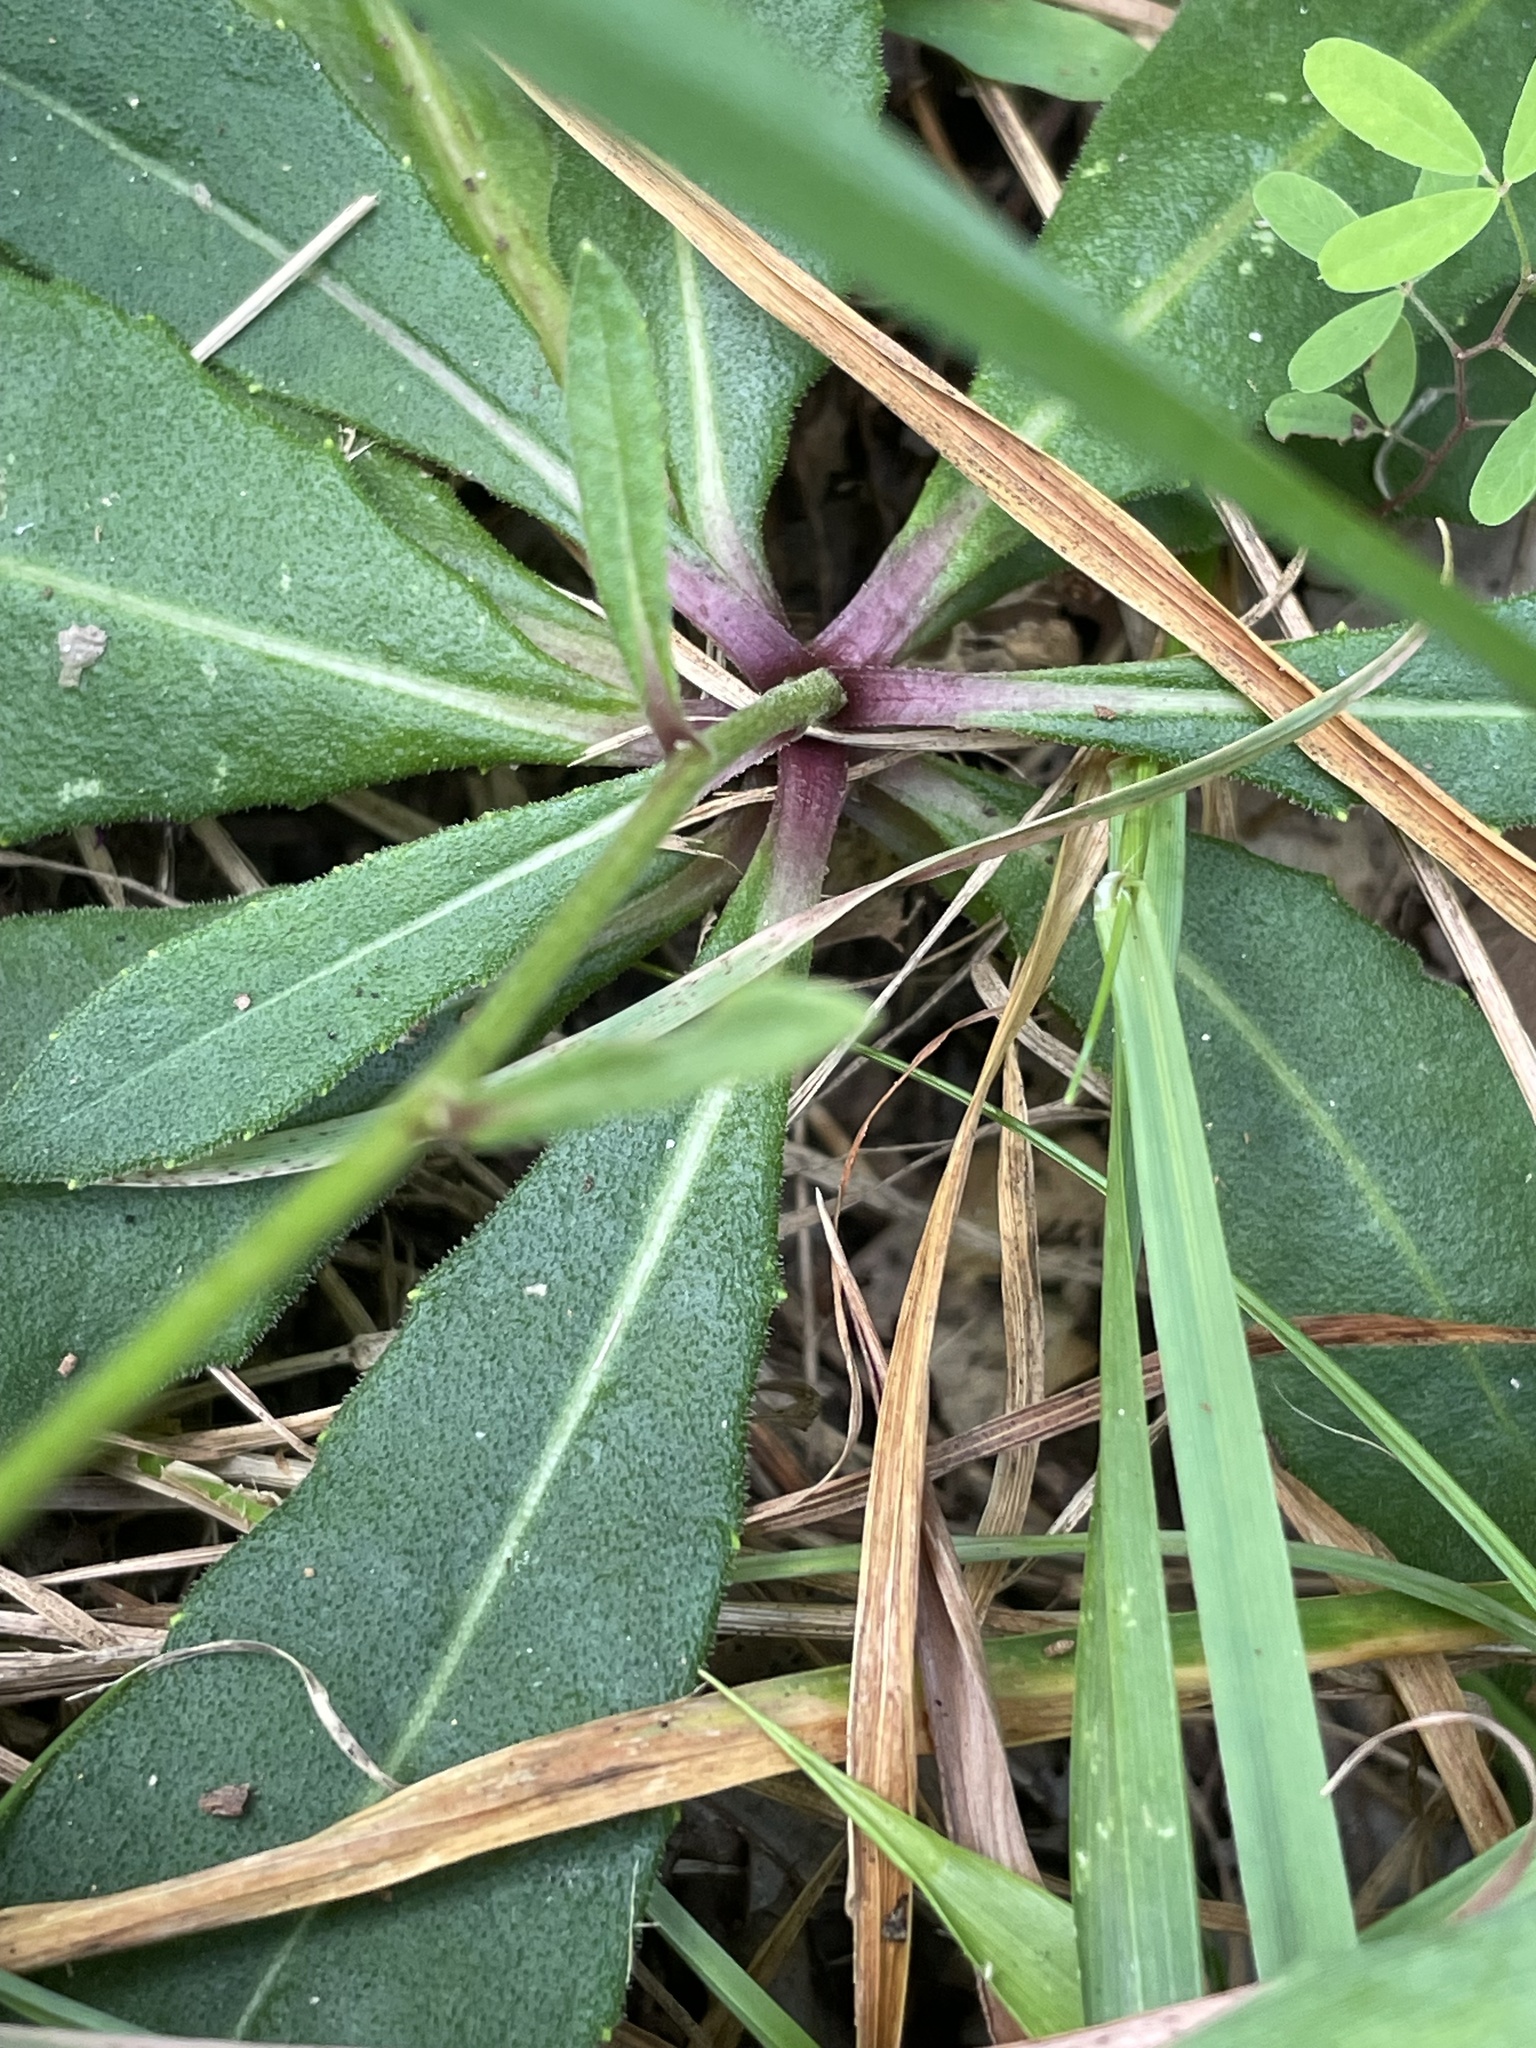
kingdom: Plantae
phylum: Tracheophyta
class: Magnoliopsida
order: Asterales
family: Asteraceae
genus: Vernonia
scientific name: Vernonia acaulis
